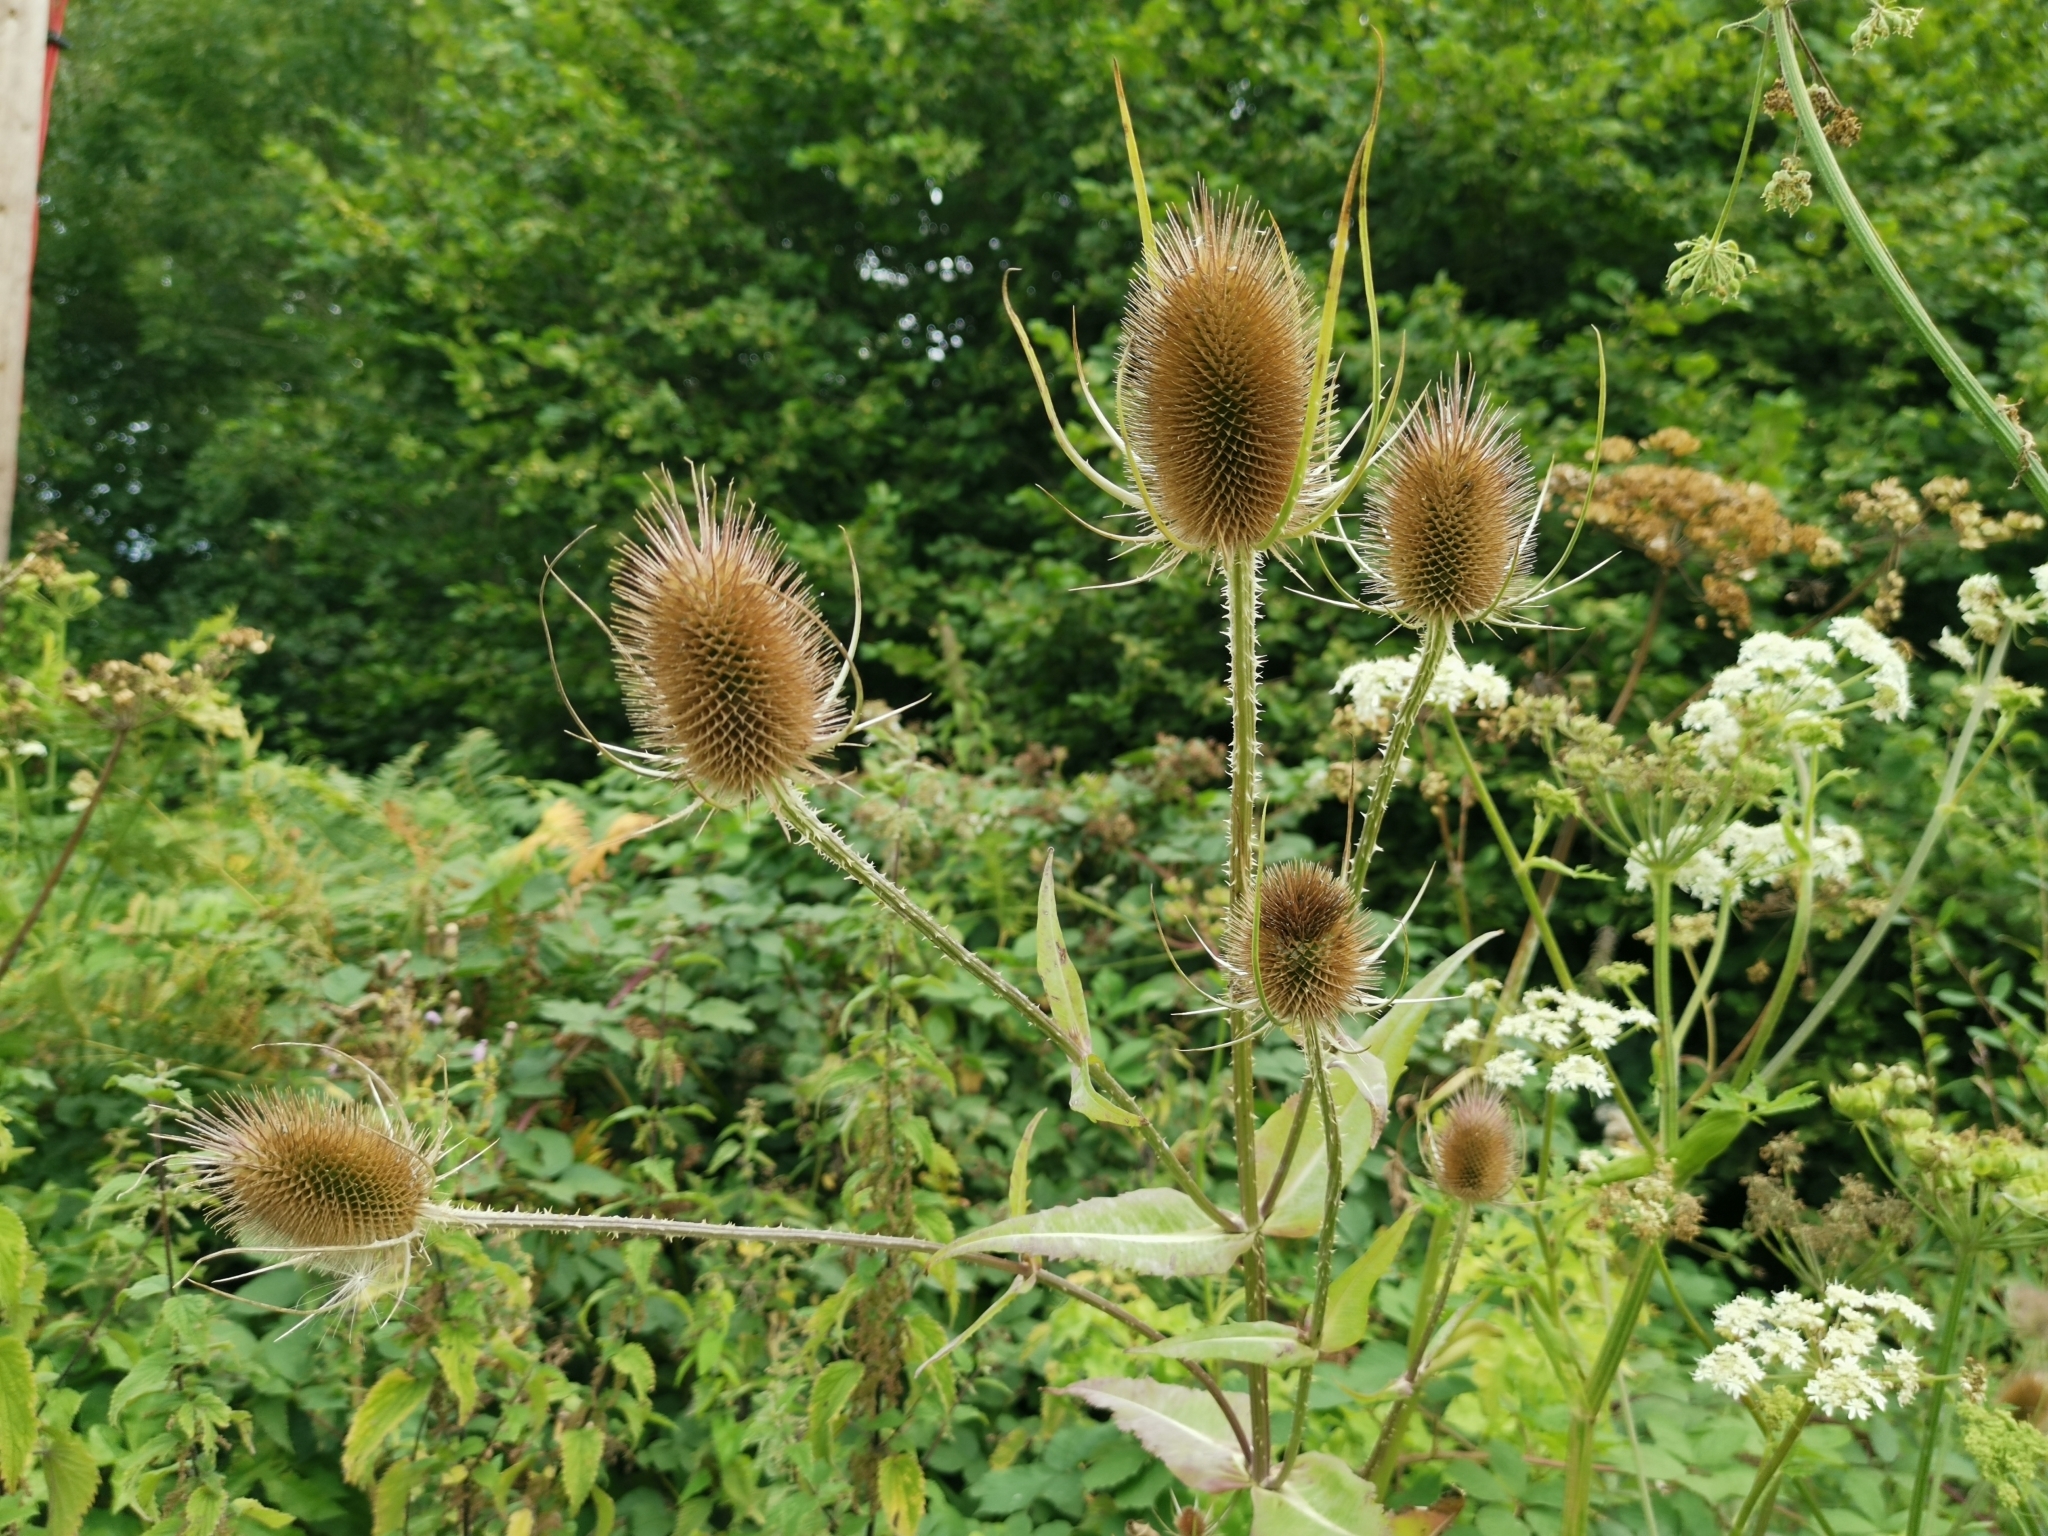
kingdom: Plantae
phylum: Tracheophyta
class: Magnoliopsida
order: Dipsacales
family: Caprifoliaceae
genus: Dipsacus
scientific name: Dipsacus fullonum
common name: Teasel
